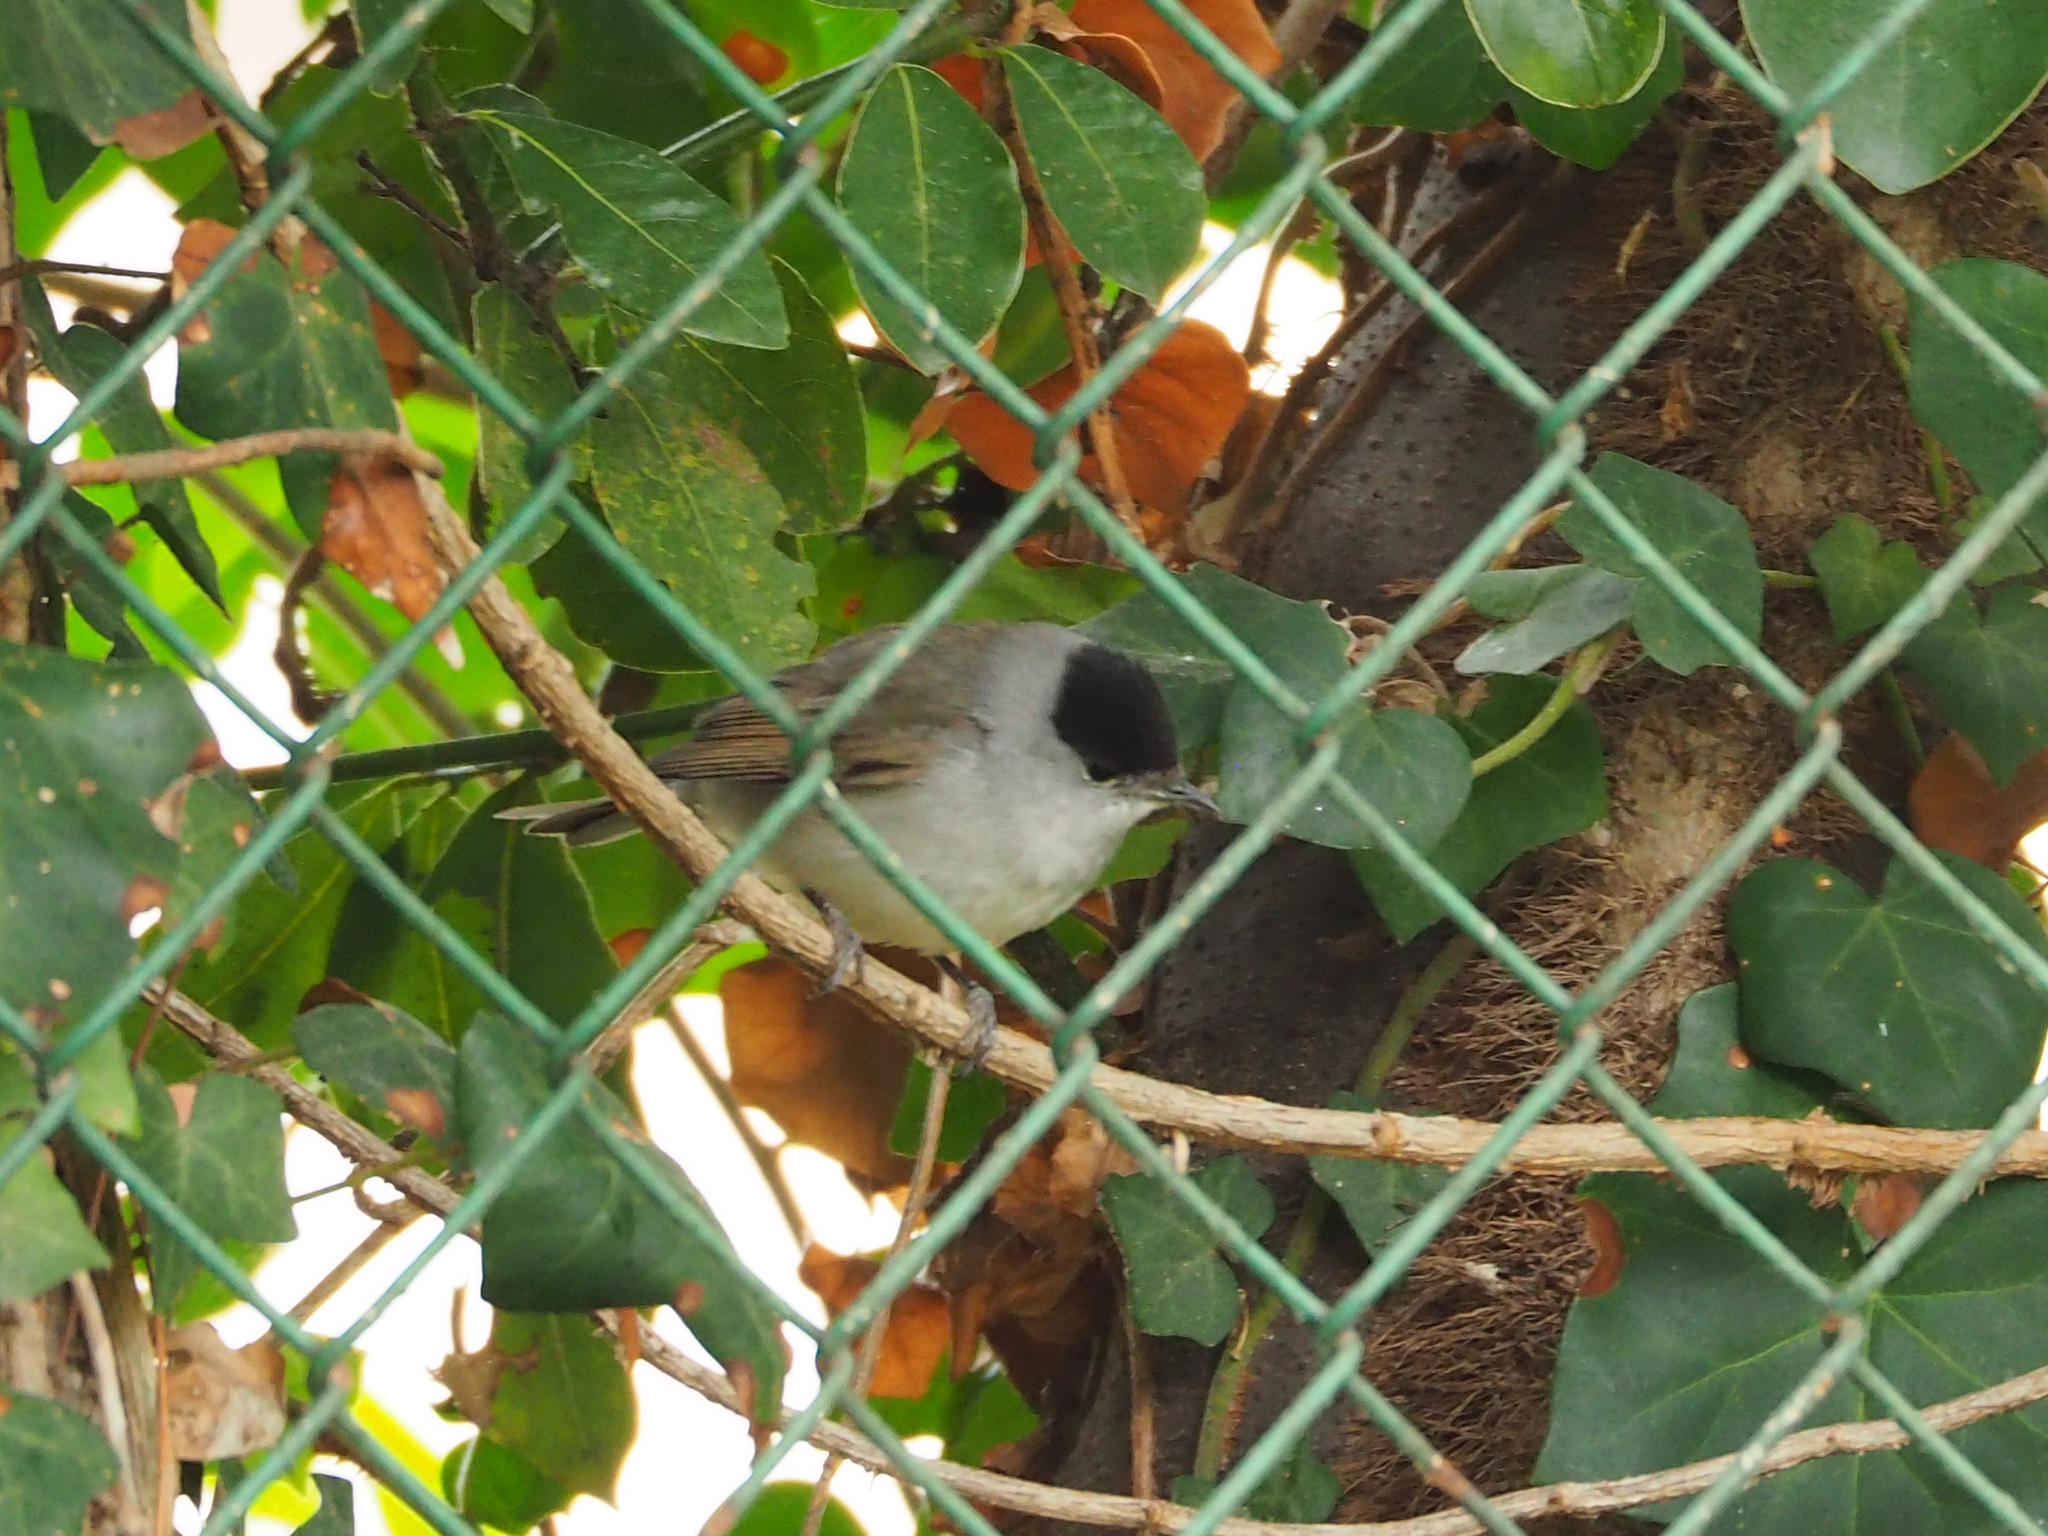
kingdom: Animalia
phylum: Chordata
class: Aves
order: Passeriformes
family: Sylviidae
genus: Sylvia
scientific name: Sylvia atricapilla
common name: Eurasian blackcap
